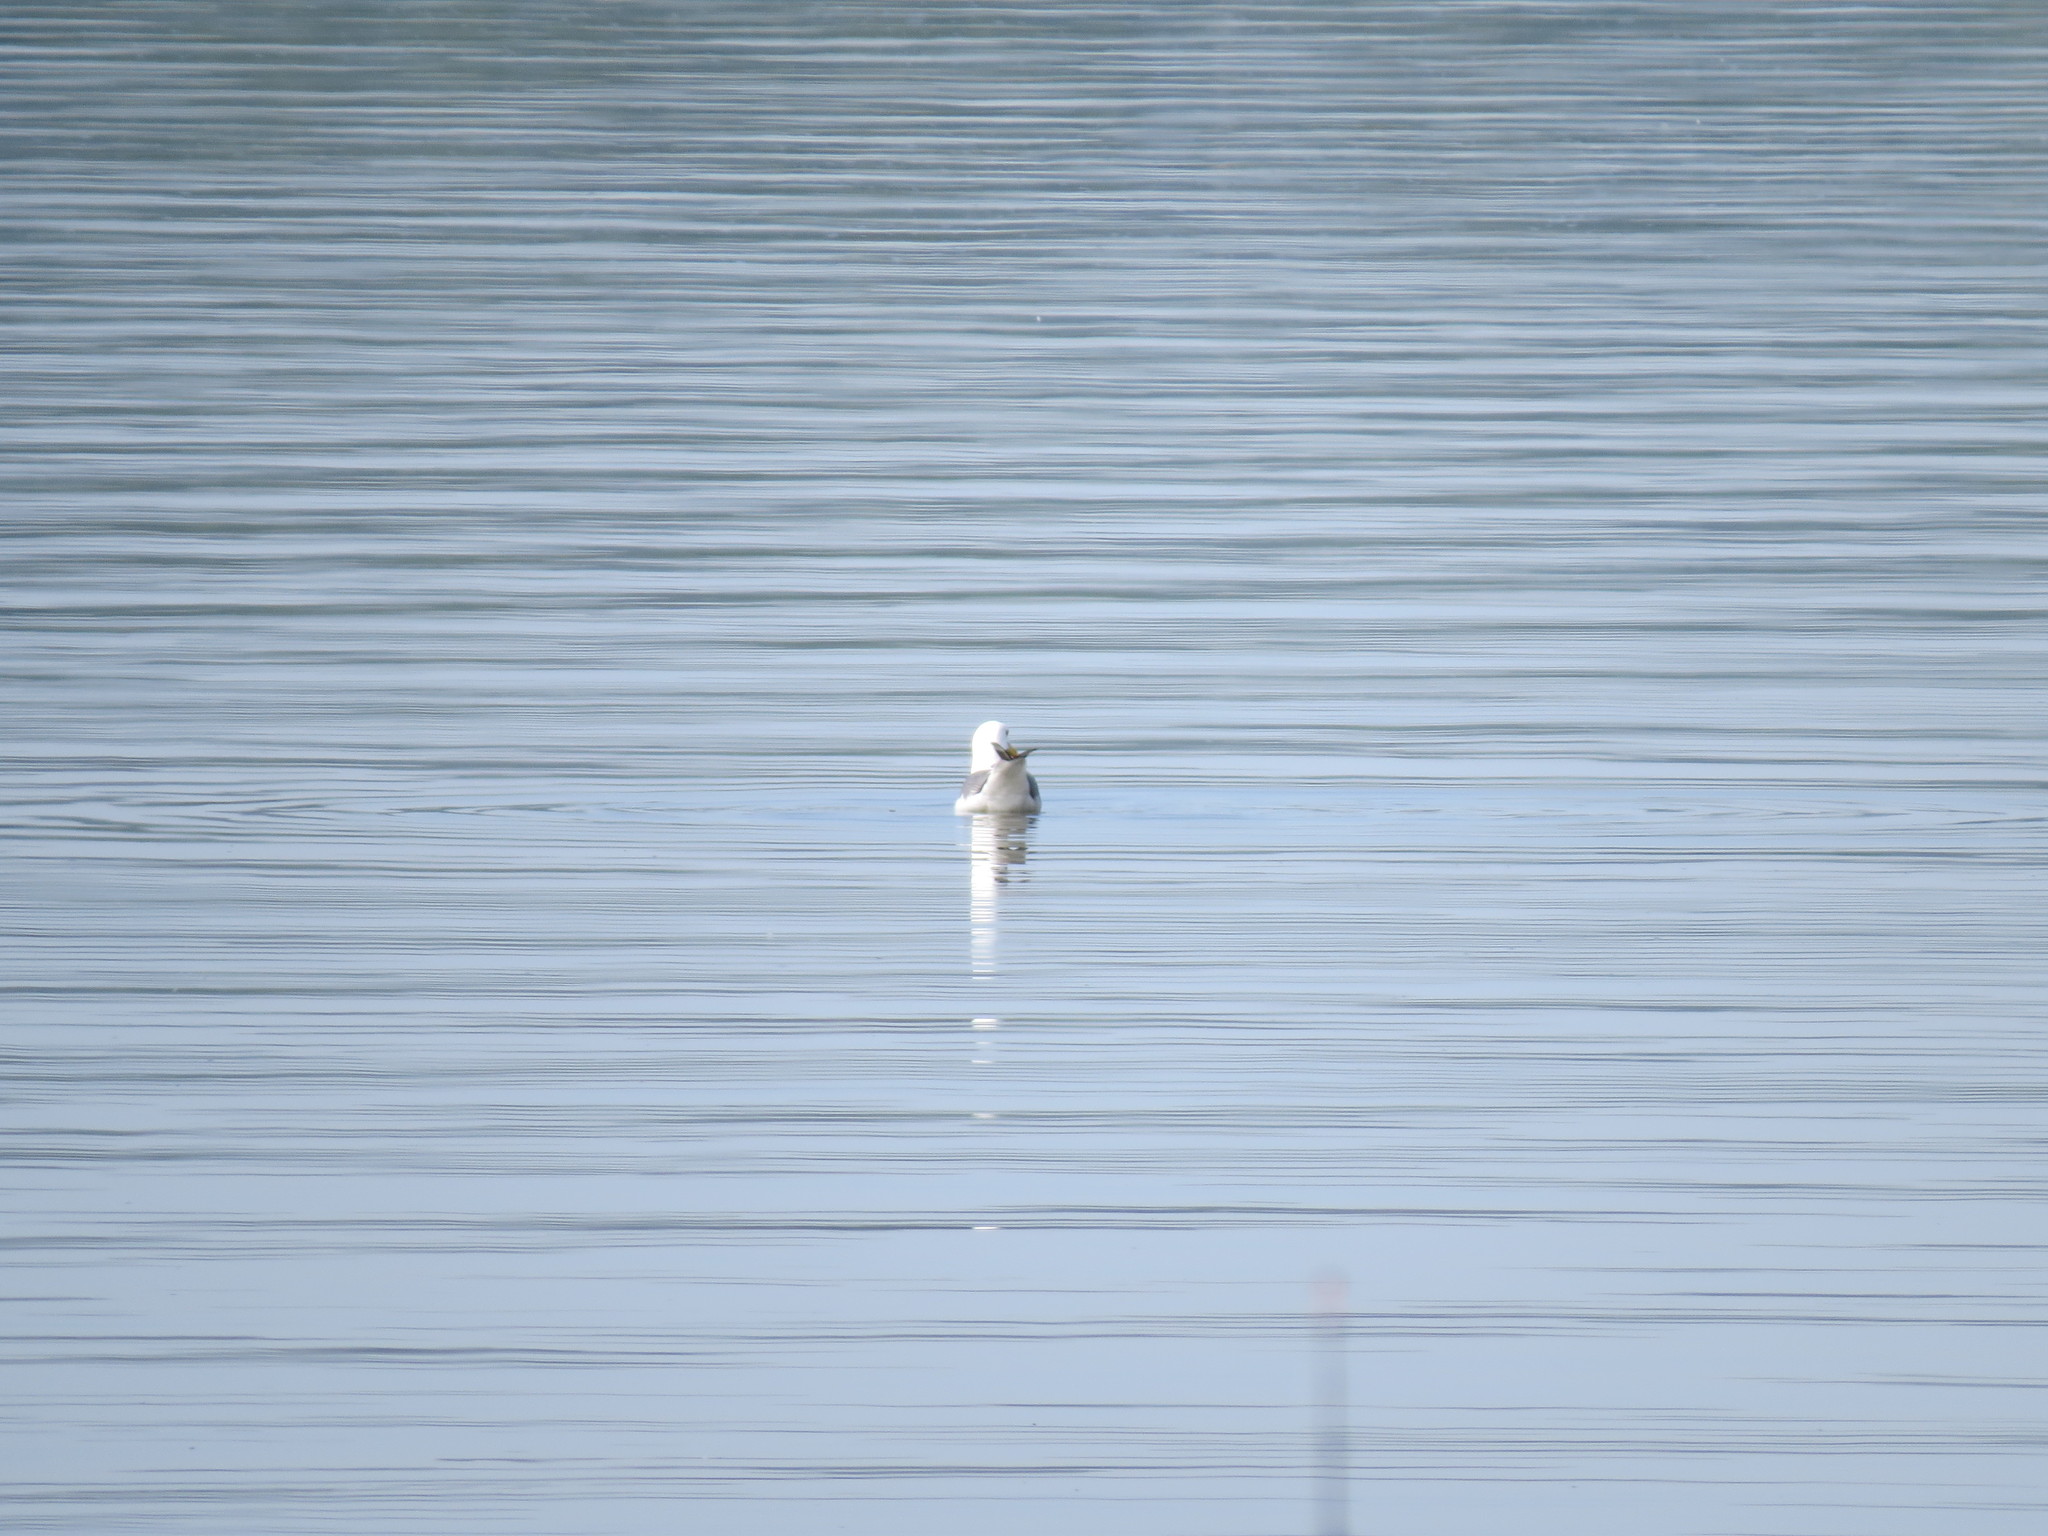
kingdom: Animalia
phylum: Chordata
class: Aves
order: Charadriiformes
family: Laridae
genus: Larus
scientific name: Larus canus
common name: Mew gull
